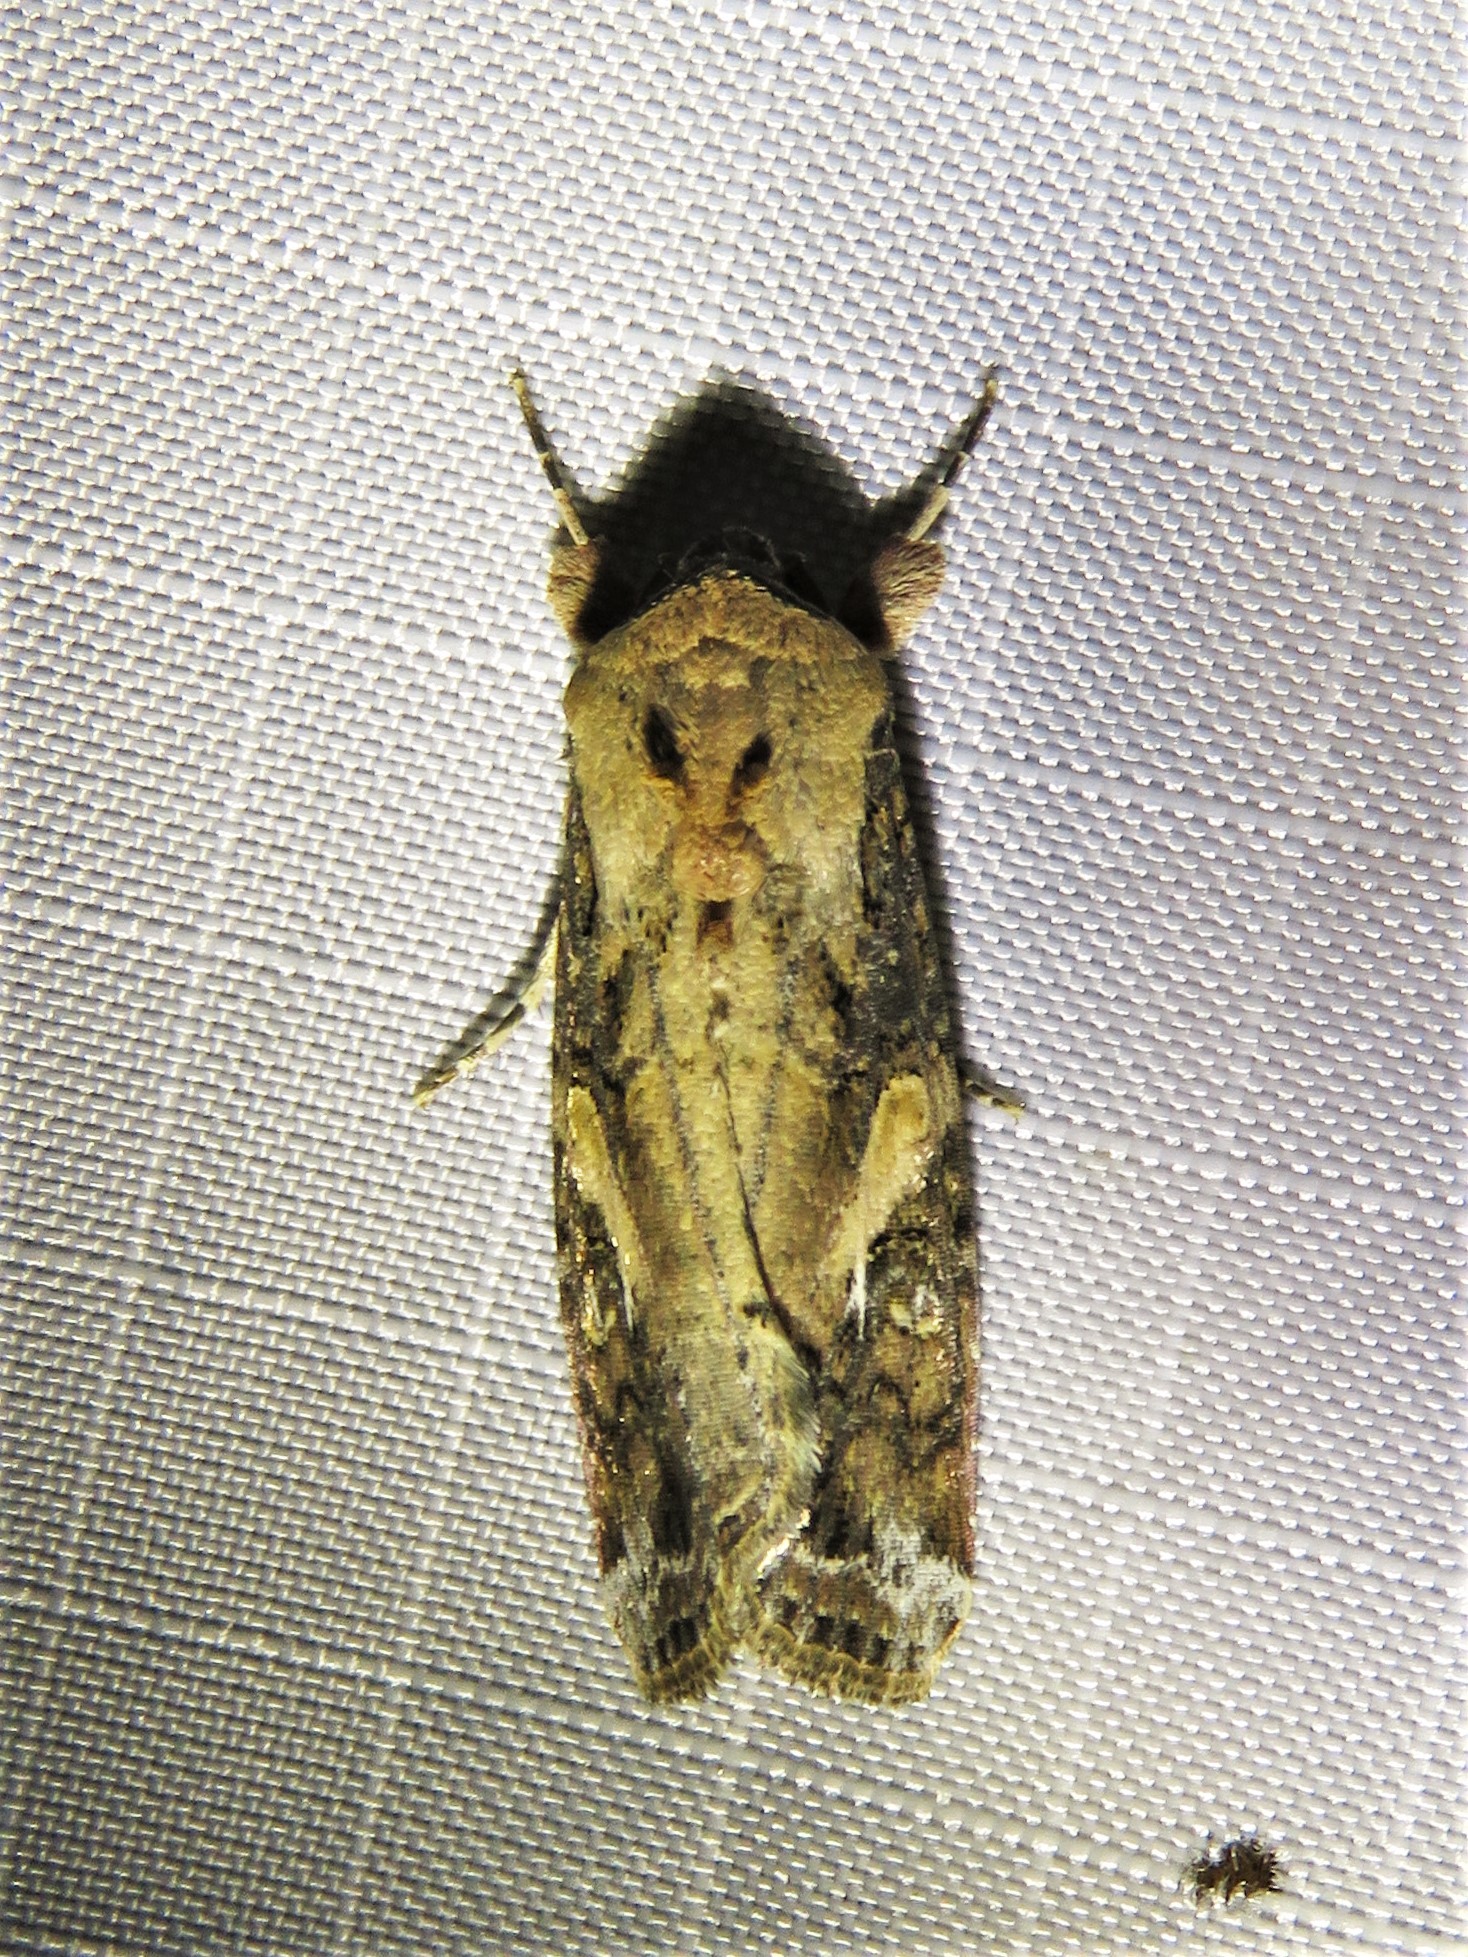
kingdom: Animalia
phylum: Arthropoda
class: Insecta
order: Lepidoptera
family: Noctuidae
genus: Spodoptera
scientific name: Spodoptera frugiperda
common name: Fall armyworm
